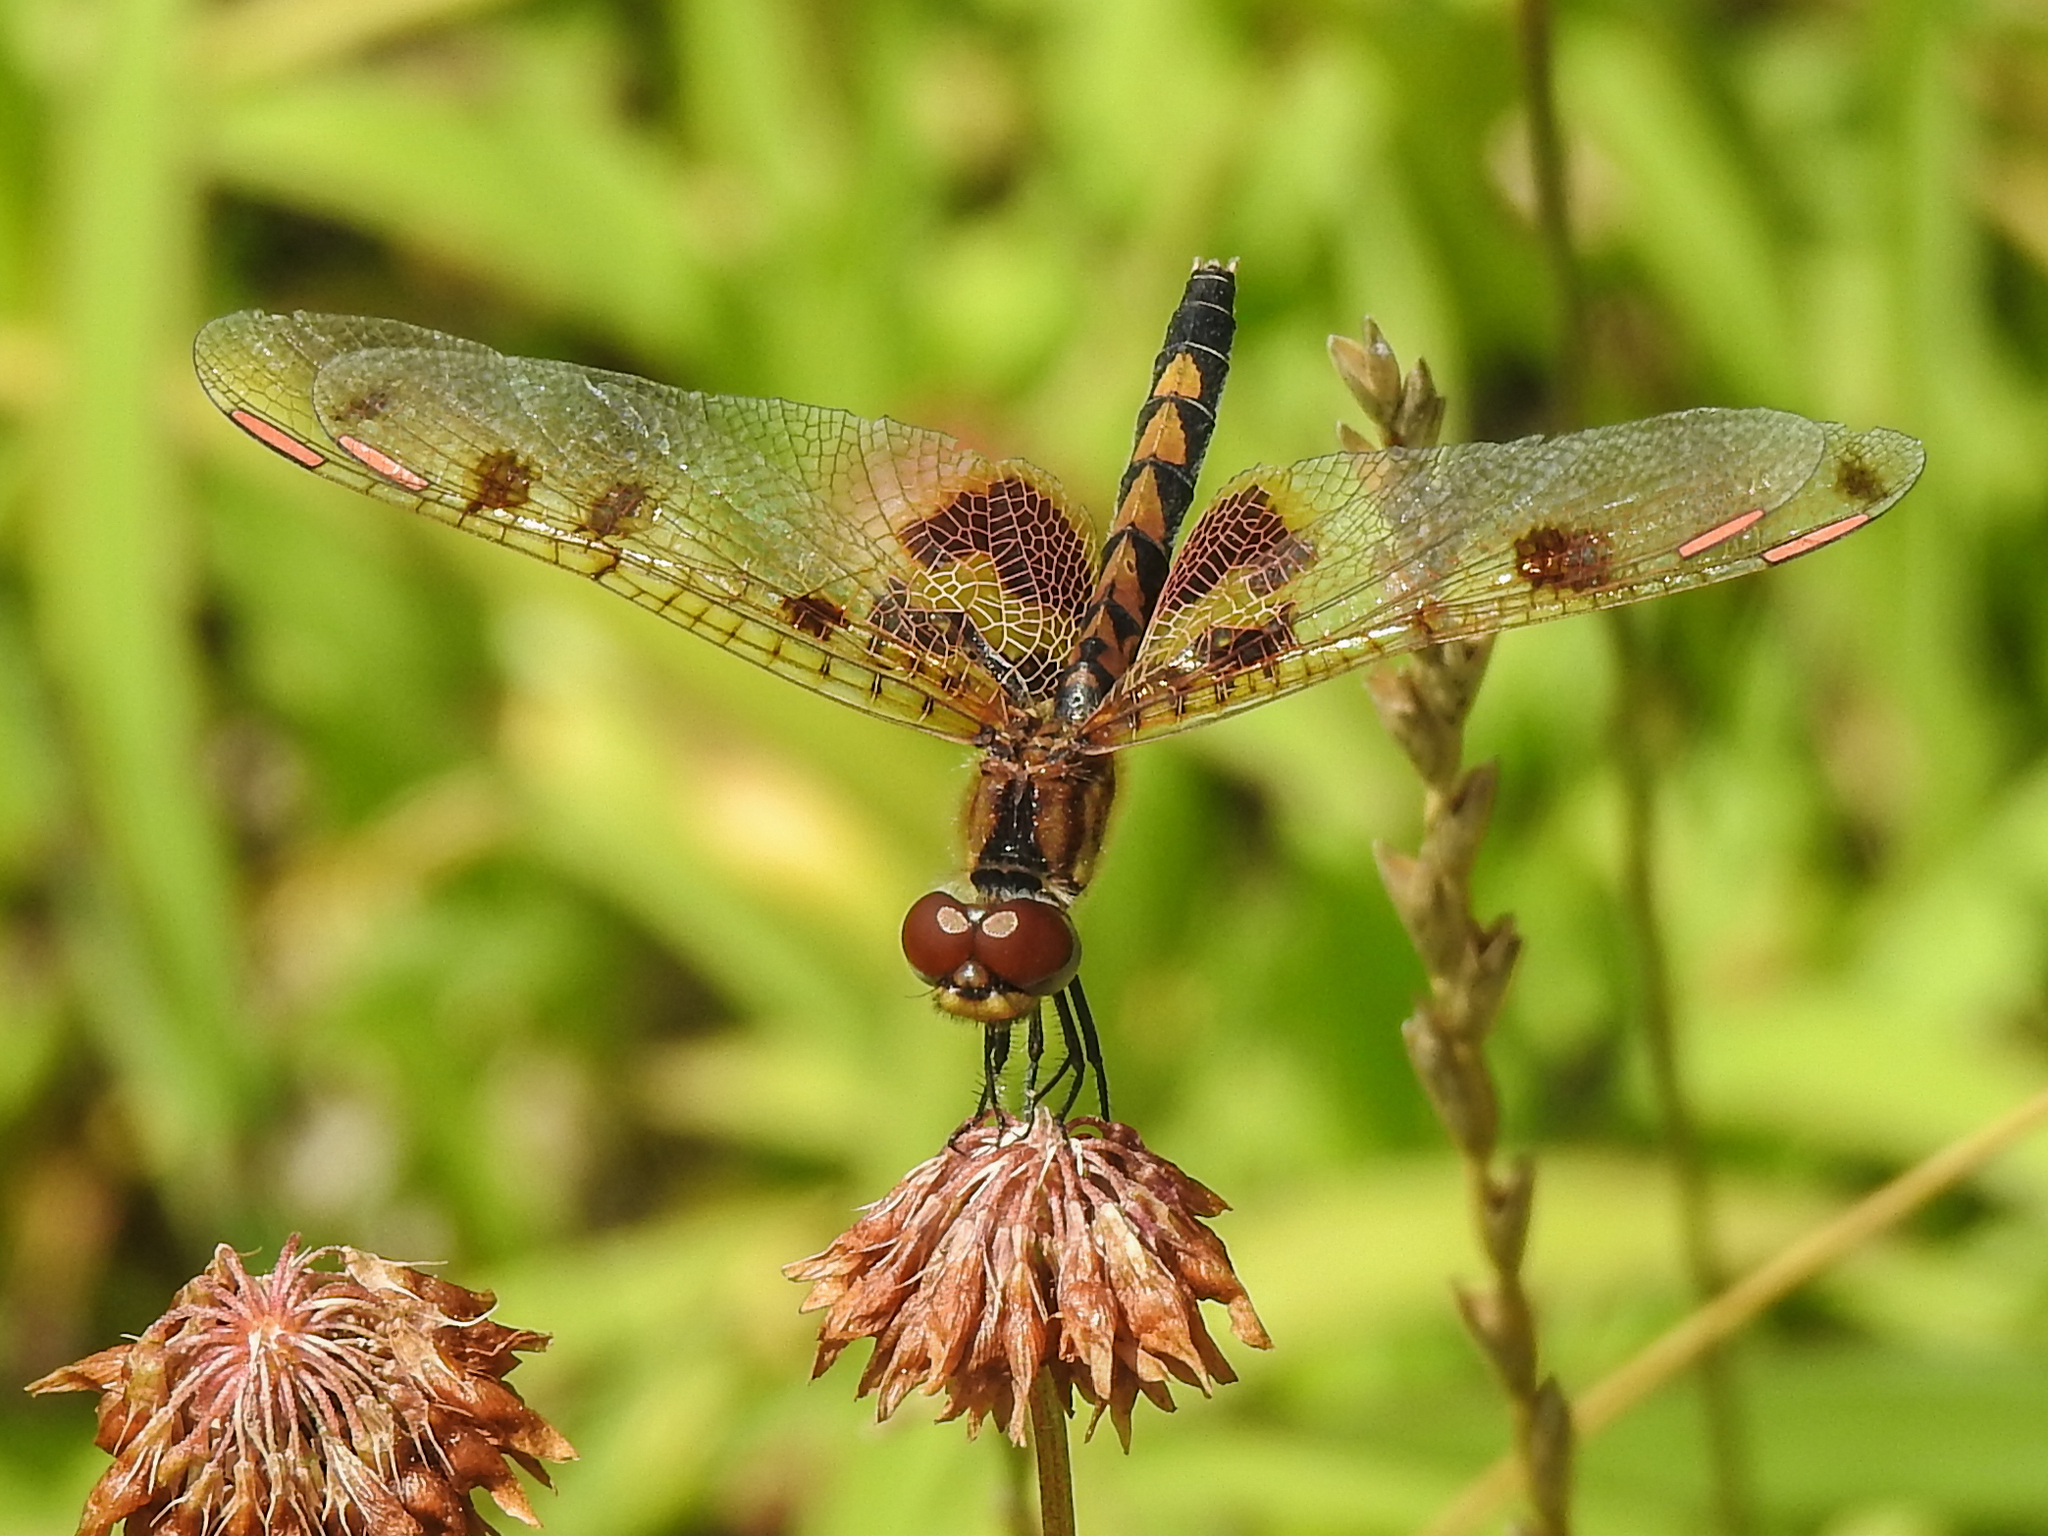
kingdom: Animalia
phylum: Arthropoda
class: Insecta
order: Odonata
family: Libellulidae
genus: Celithemis
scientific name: Celithemis elisa
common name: Calico pennant
